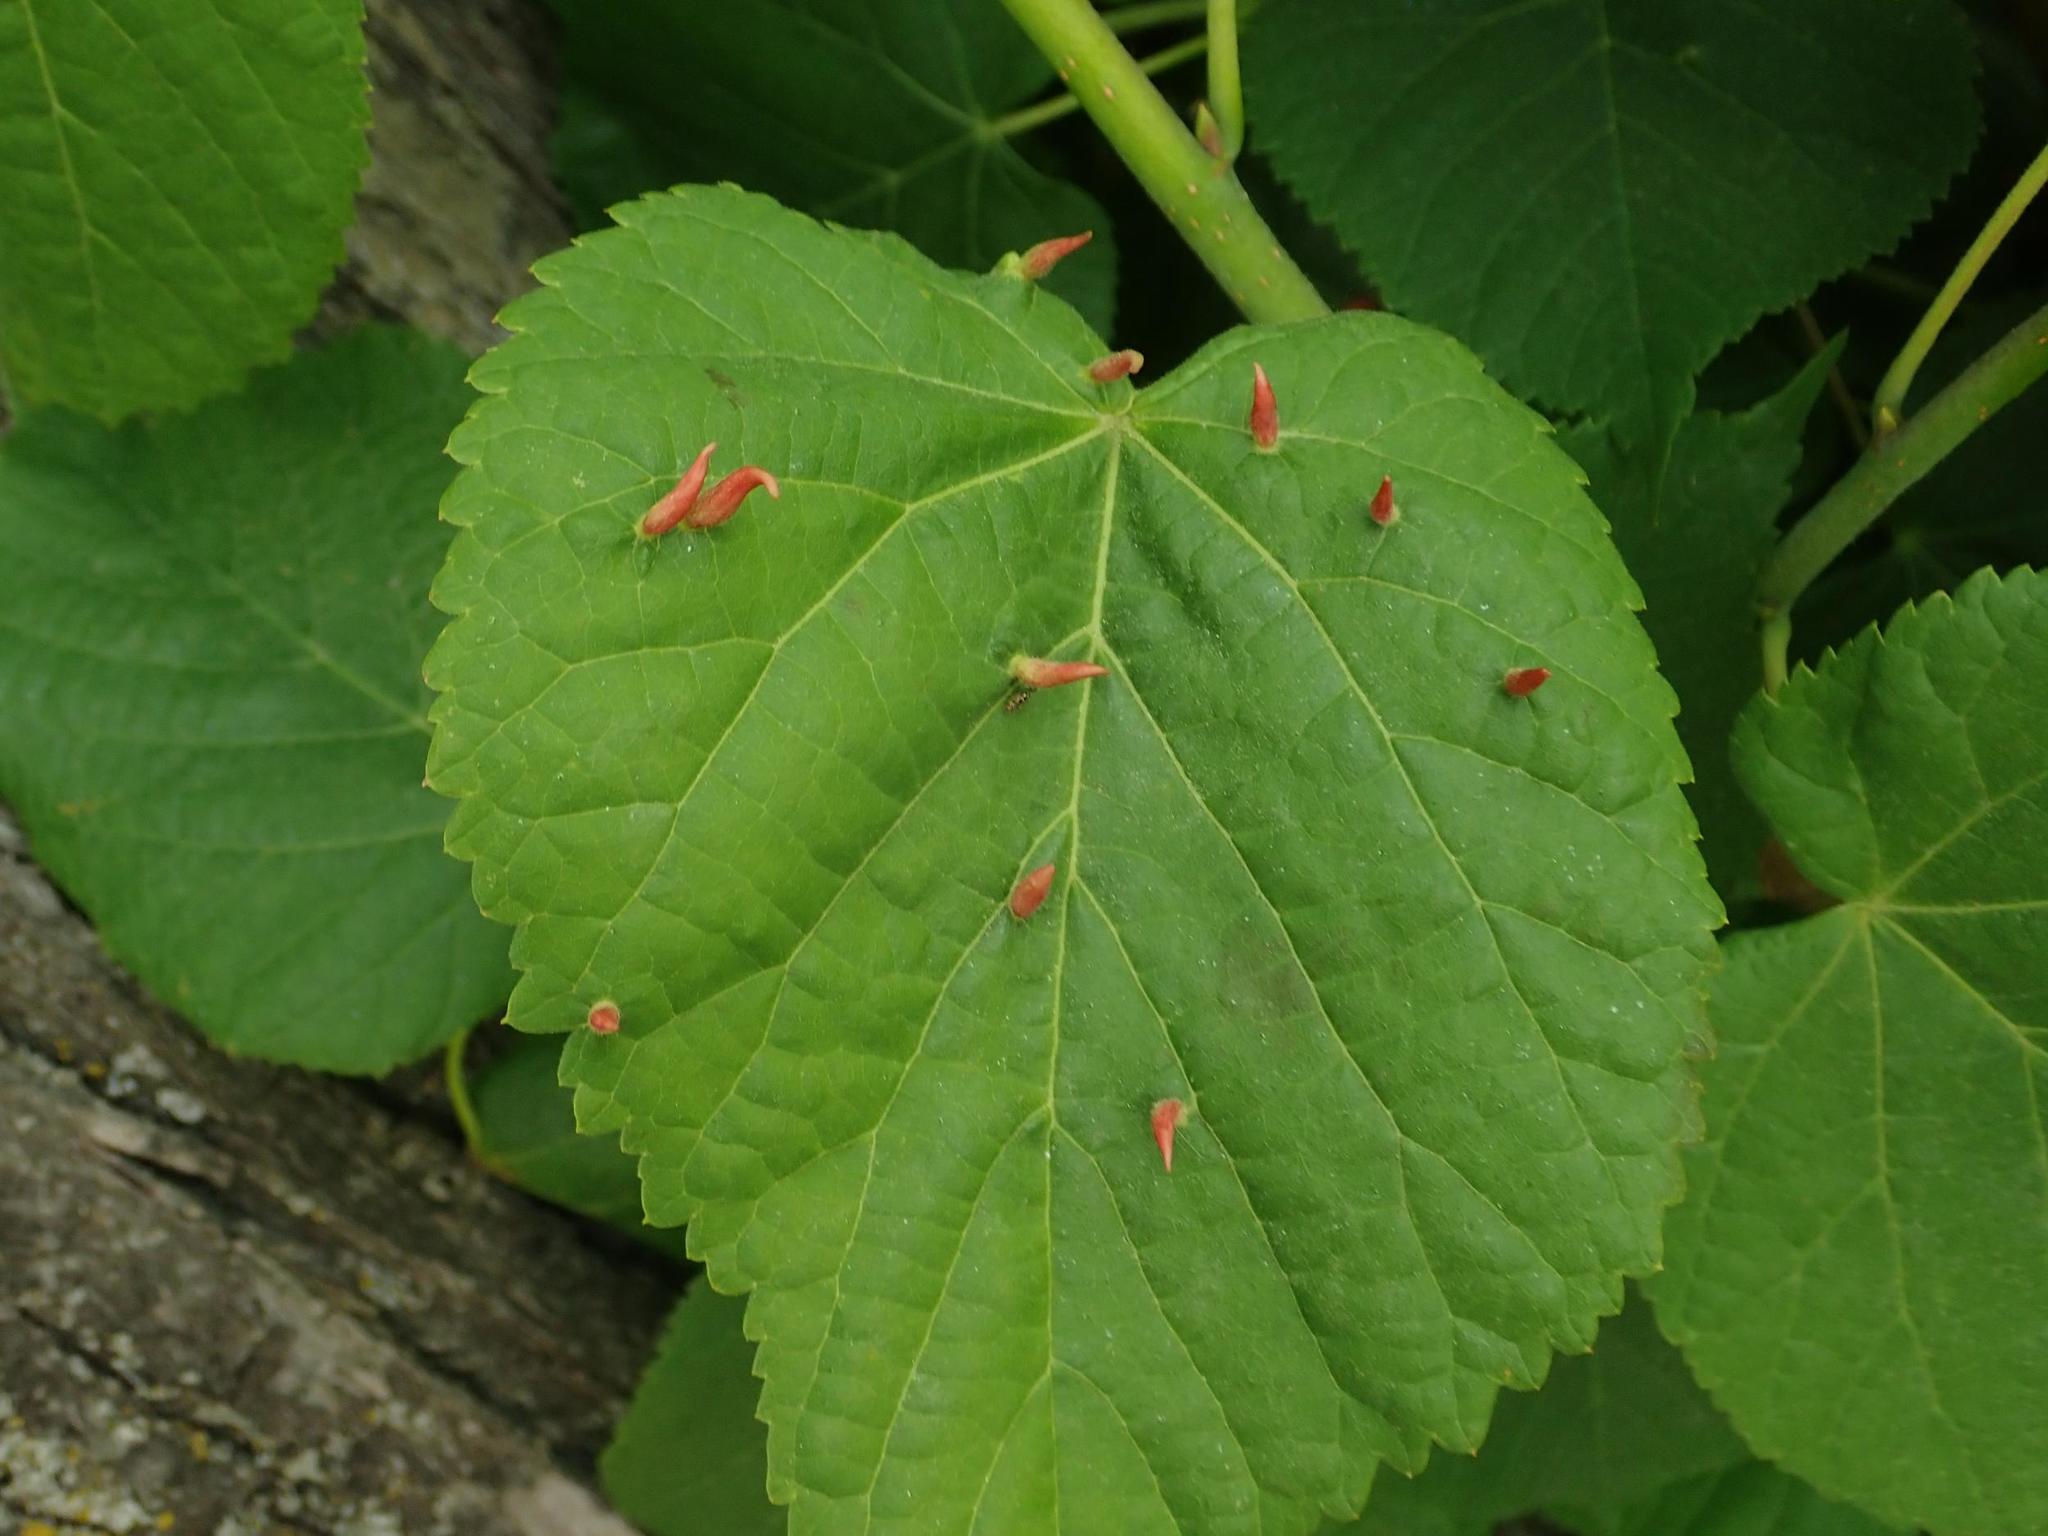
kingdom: Animalia
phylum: Arthropoda
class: Arachnida
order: Trombidiformes
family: Eriophyidae
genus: Eriophyes
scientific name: Eriophyes tiliae
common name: Red nail gall mite
